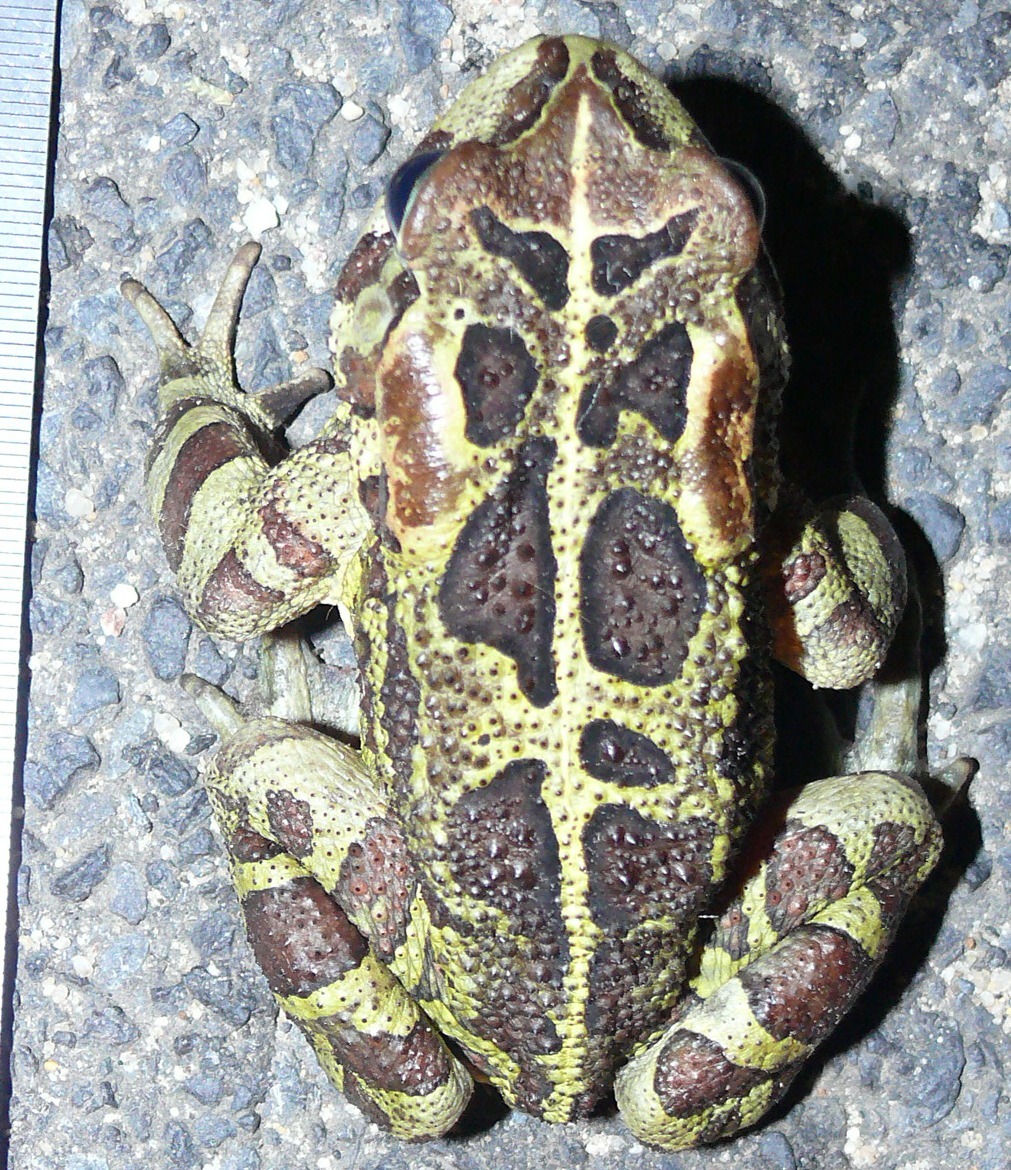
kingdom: Animalia
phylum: Chordata
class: Amphibia
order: Anura
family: Bufonidae
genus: Sclerophrys
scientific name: Sclerophrys pantherina
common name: Panther toad
